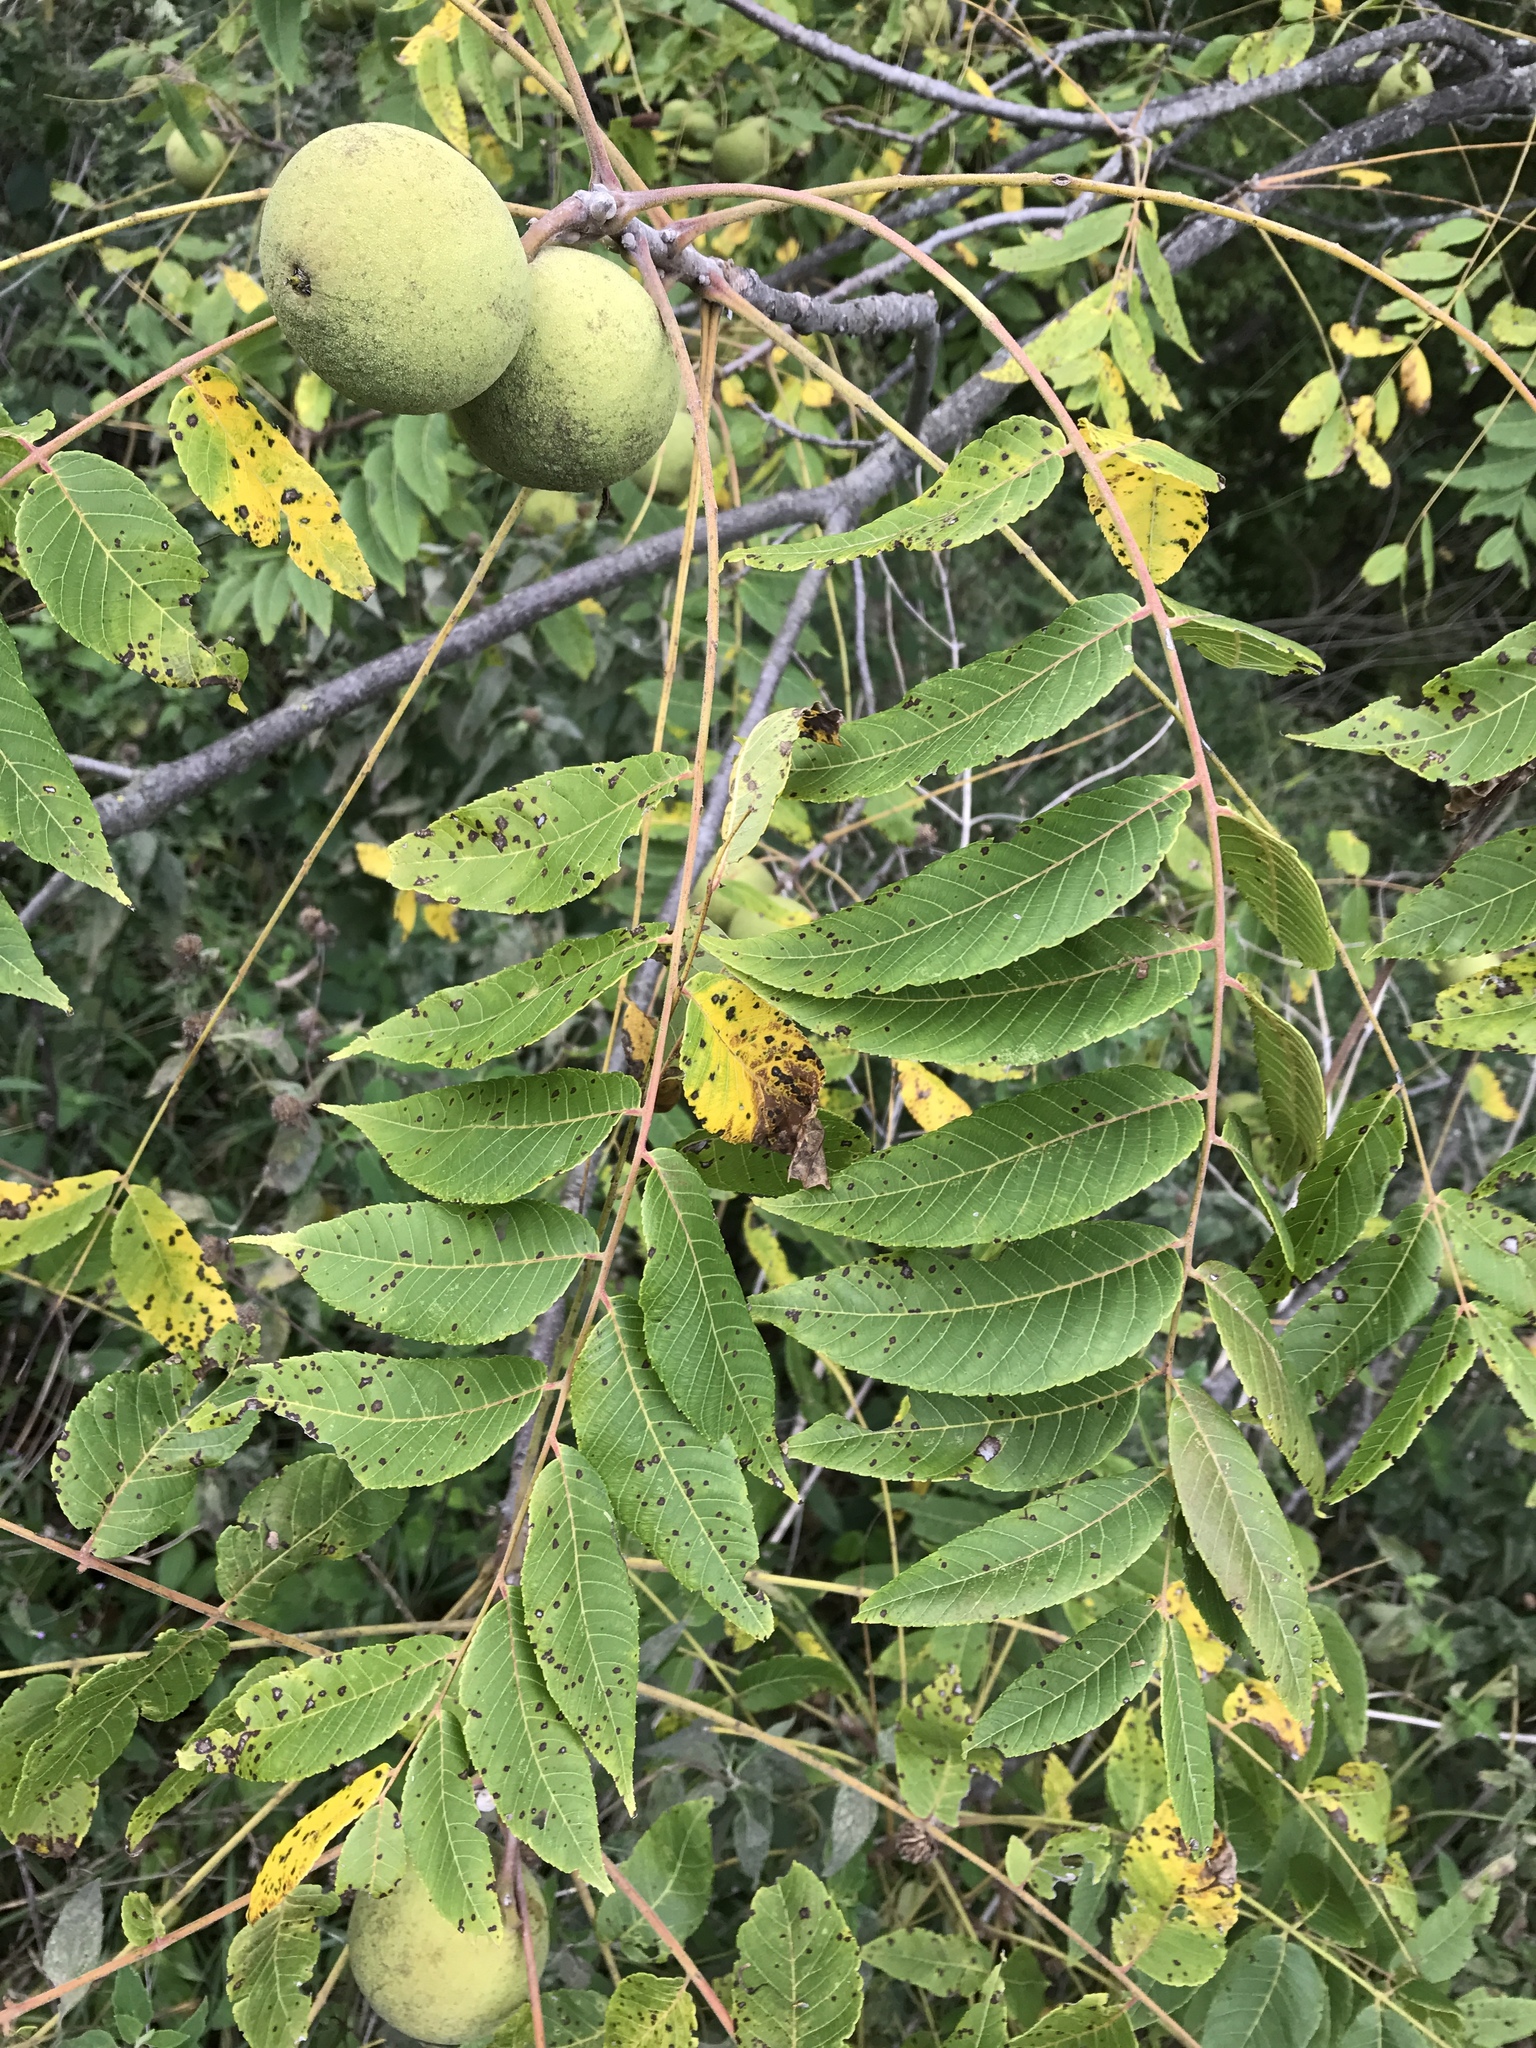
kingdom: Plantae
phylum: Tracheophyta
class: Magnoliopsida
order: Fagales
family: Juglandaceae
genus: Juglans
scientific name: Juglans nigra
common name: Black walnut
